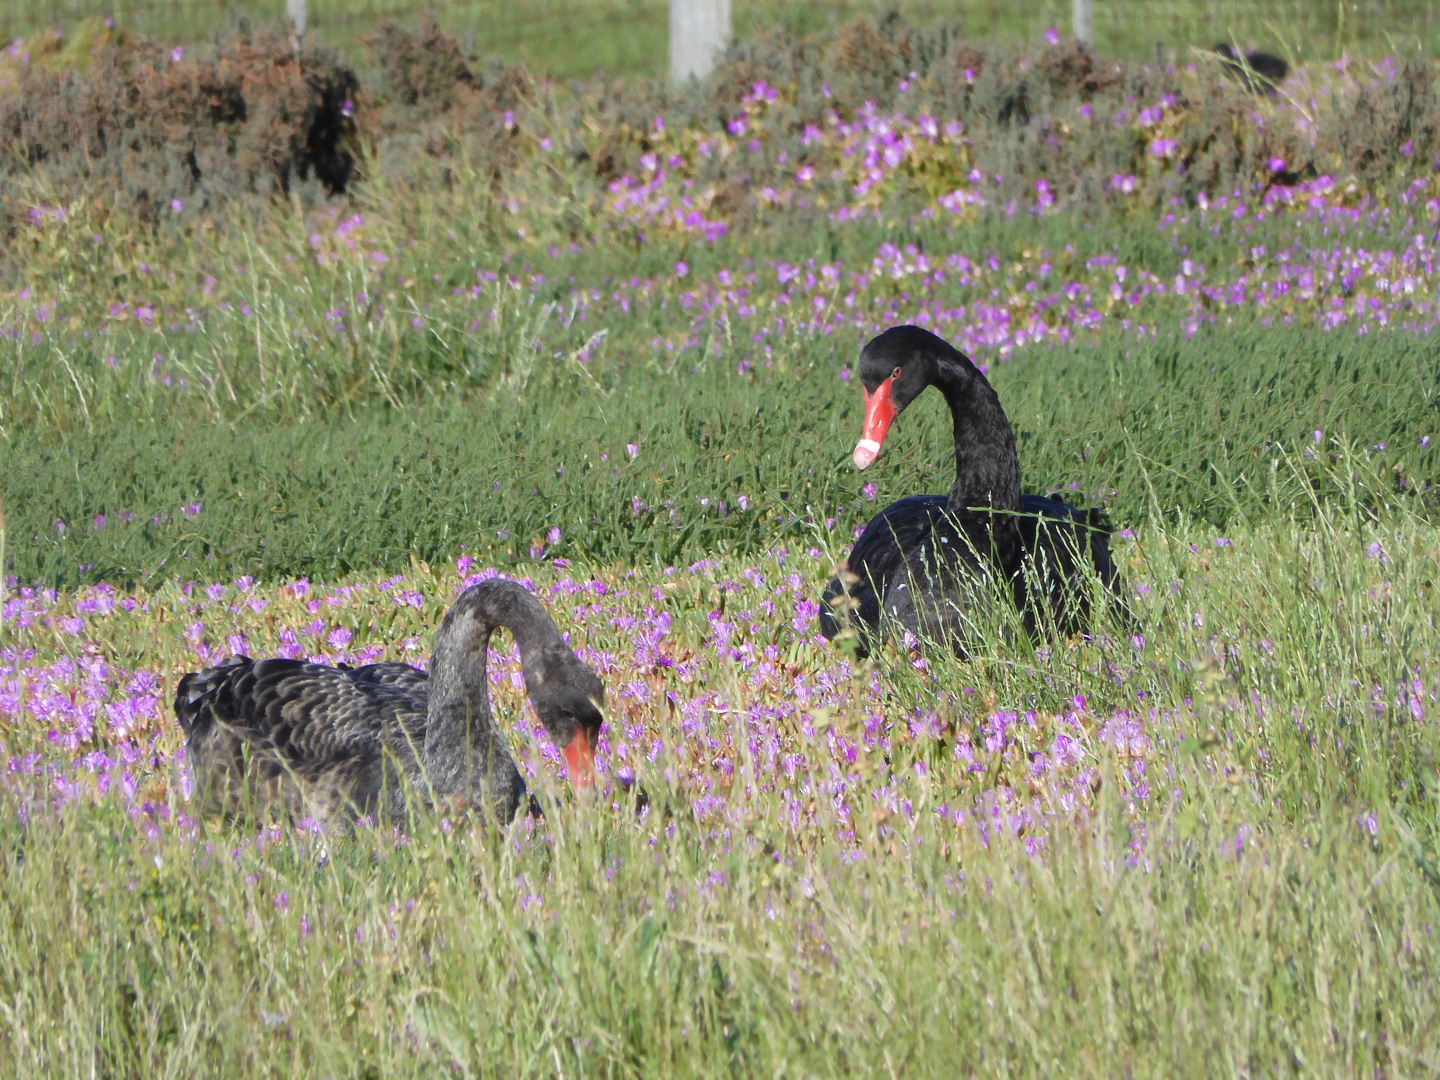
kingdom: Animalia
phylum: Chordata
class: Aves
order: Anseriformes
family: Anatidae
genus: Cygnus
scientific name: Cygnus atratus
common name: Black swan
